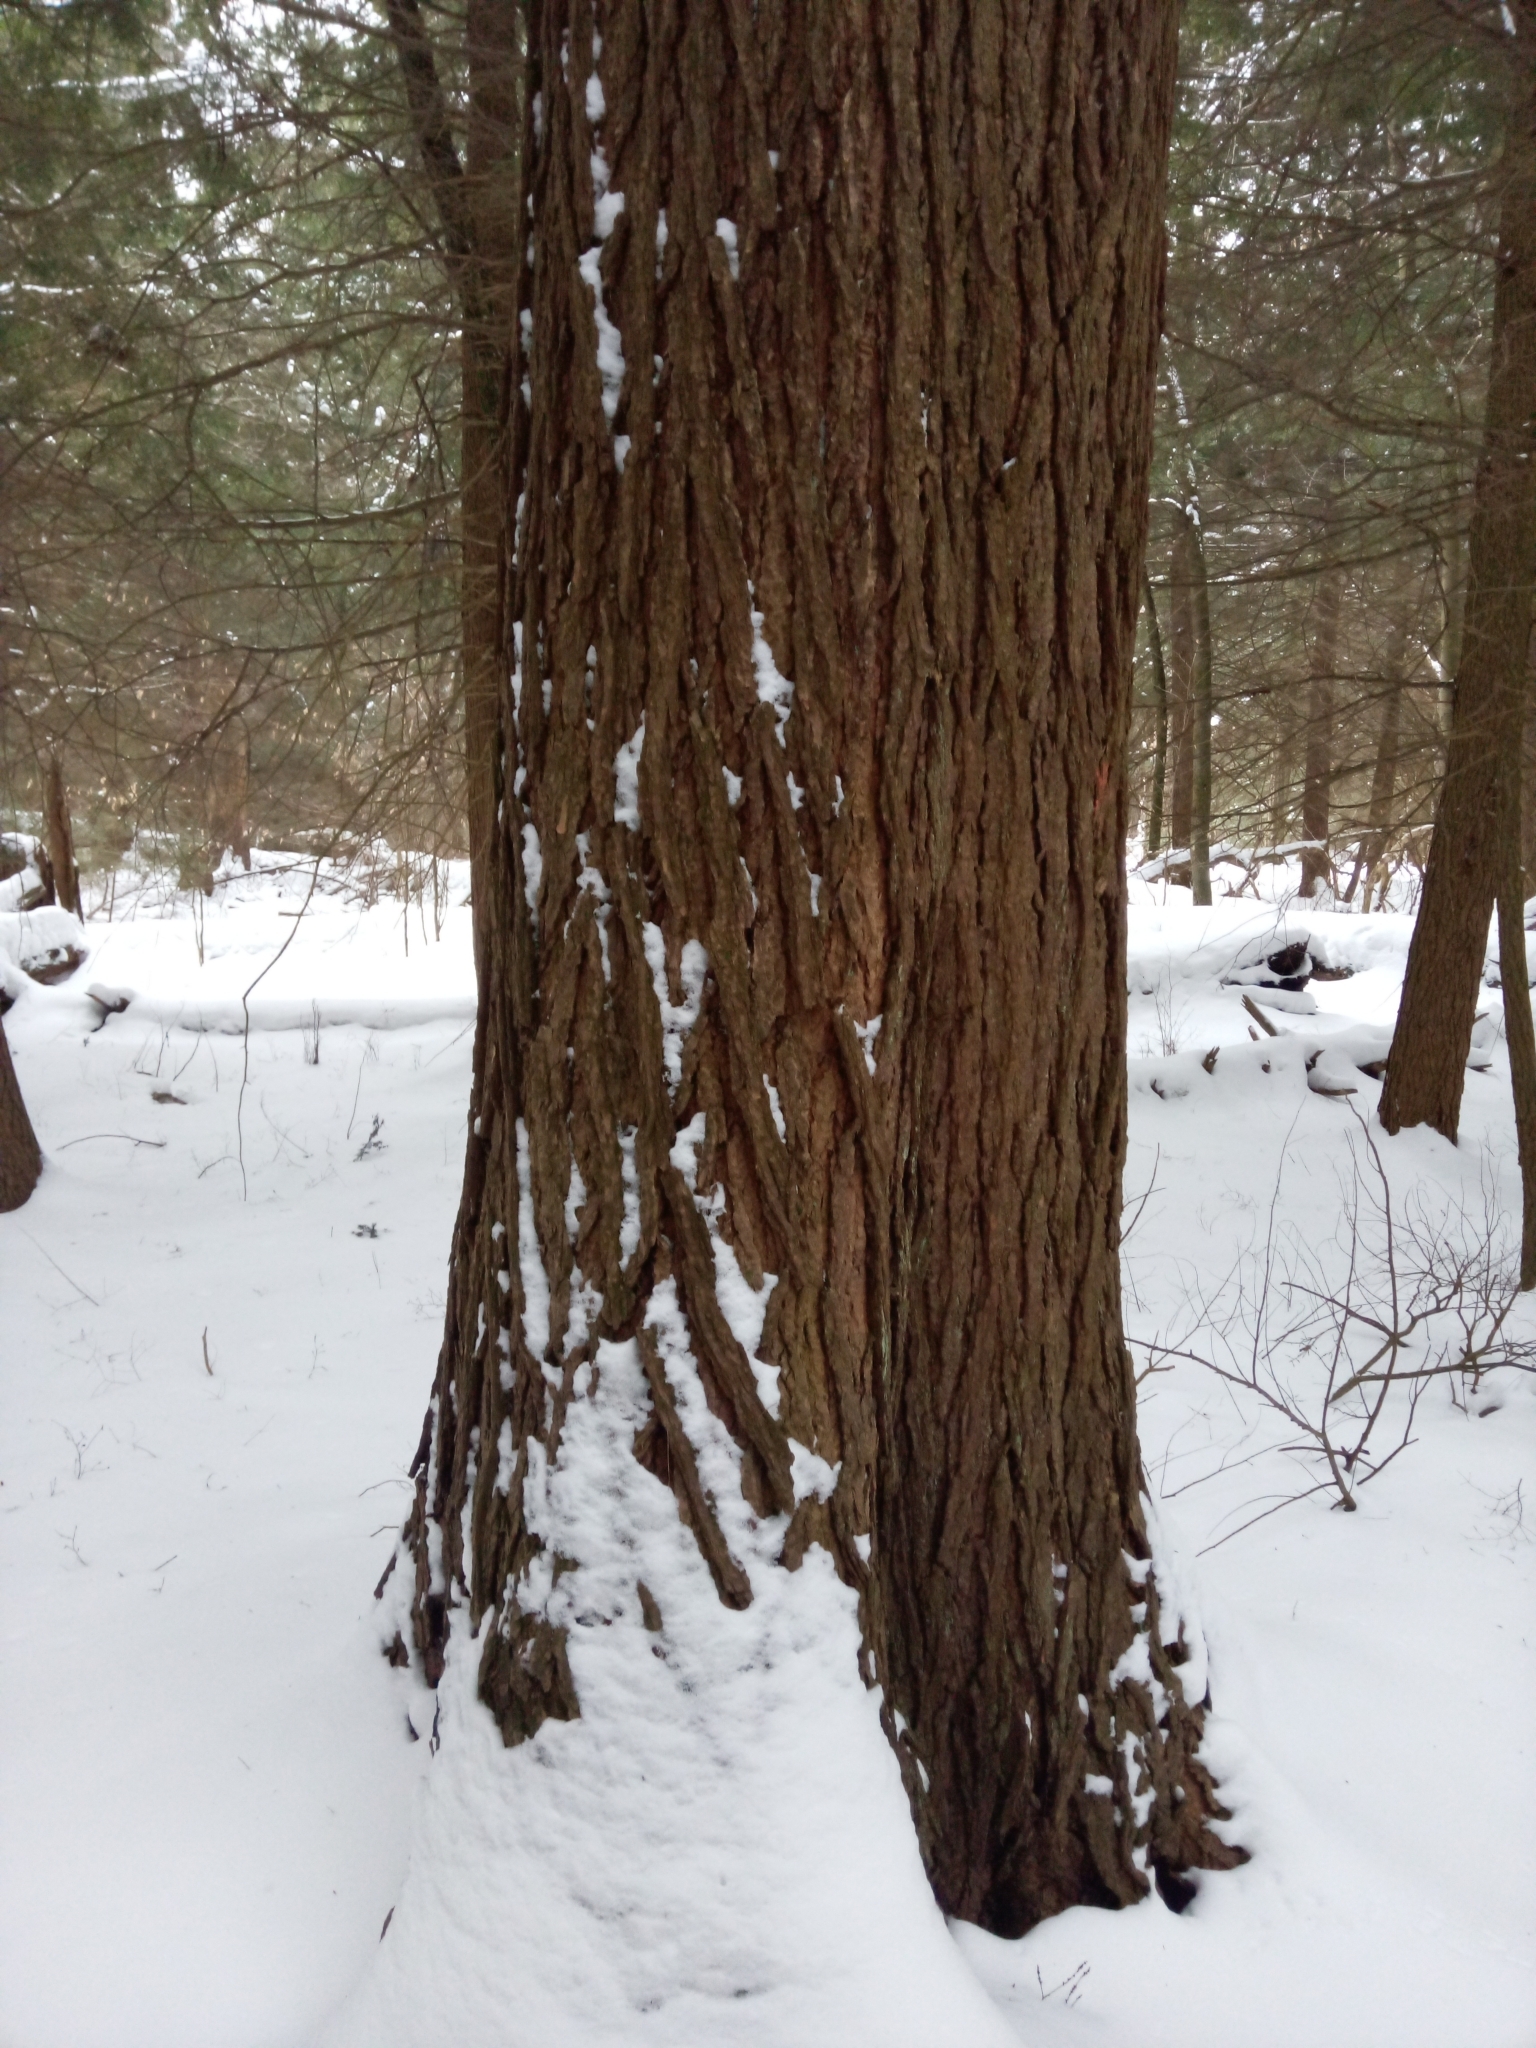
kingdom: Plantae
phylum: Tracheophyta
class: Pinopsida
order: Pinales
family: Pinaceae
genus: Tsuga
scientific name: Tsuga canadensis
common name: Eastern hemlock
